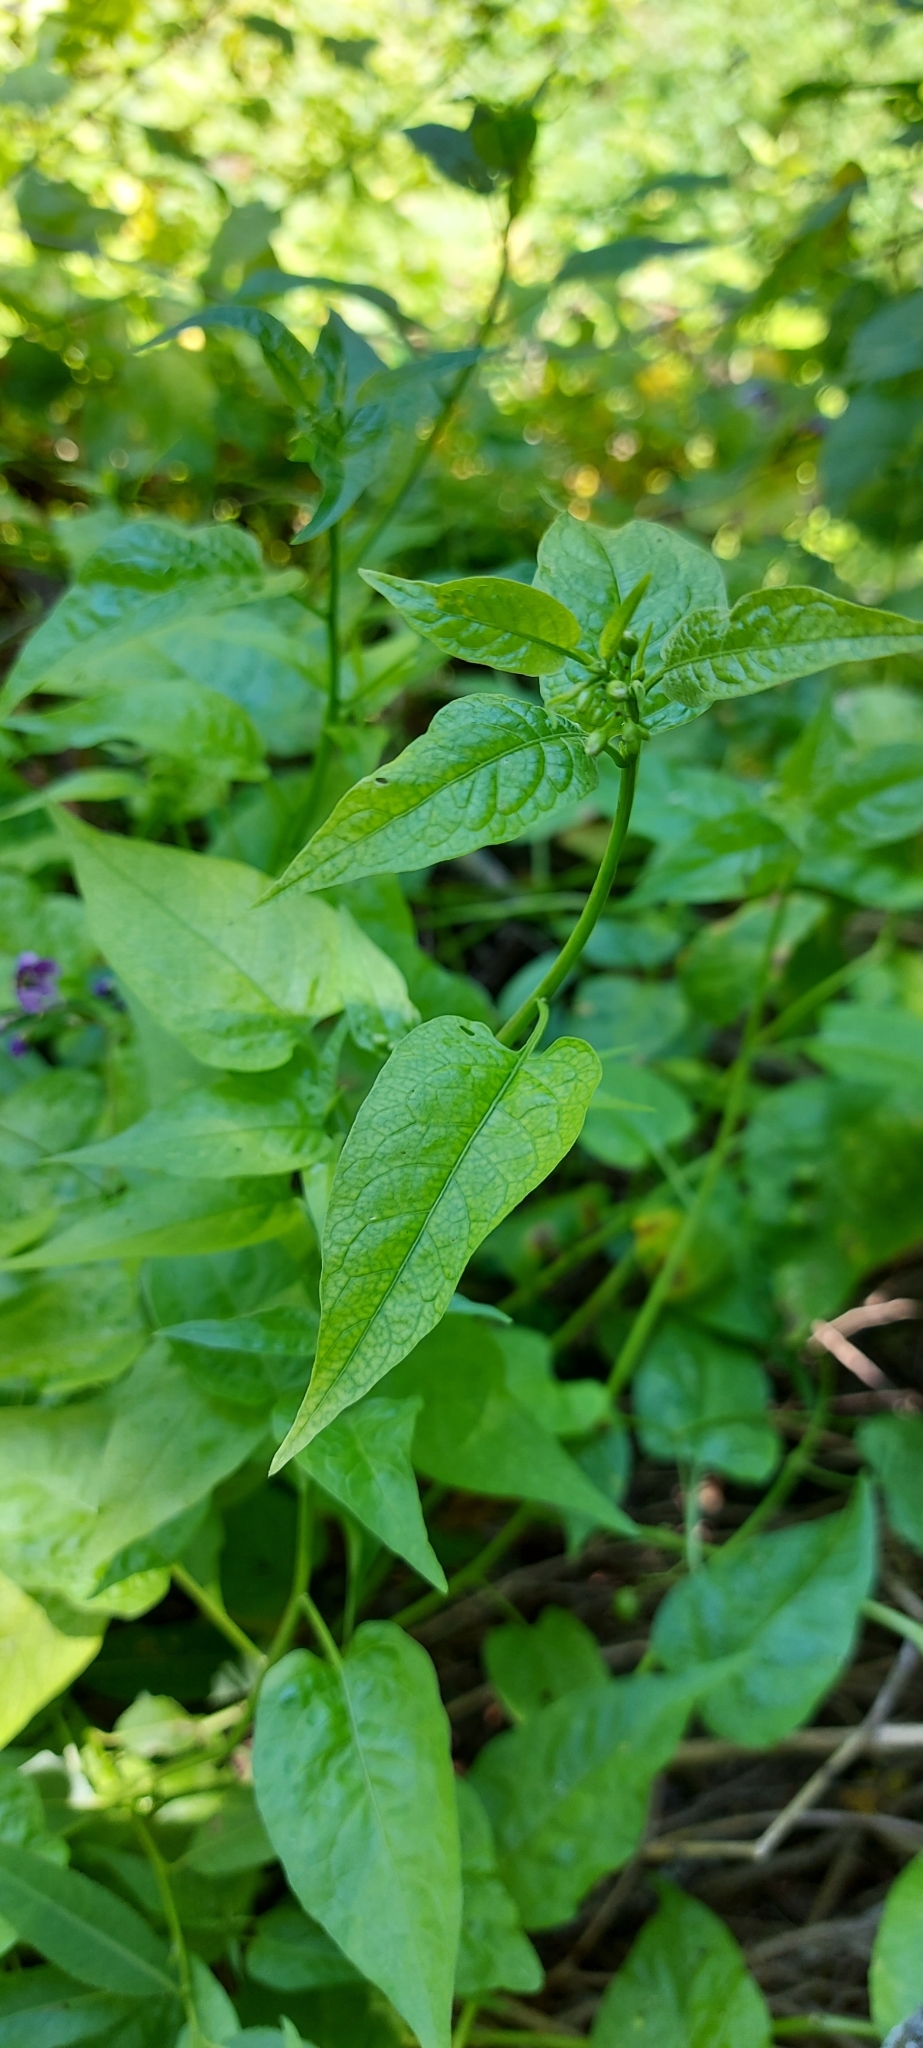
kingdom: Plantae
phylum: Tracheophyta
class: Magnoliopsida
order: Solanales
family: Solanaceae
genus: Solanum
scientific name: Solanum dulcamara
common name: Climbing nightshade
